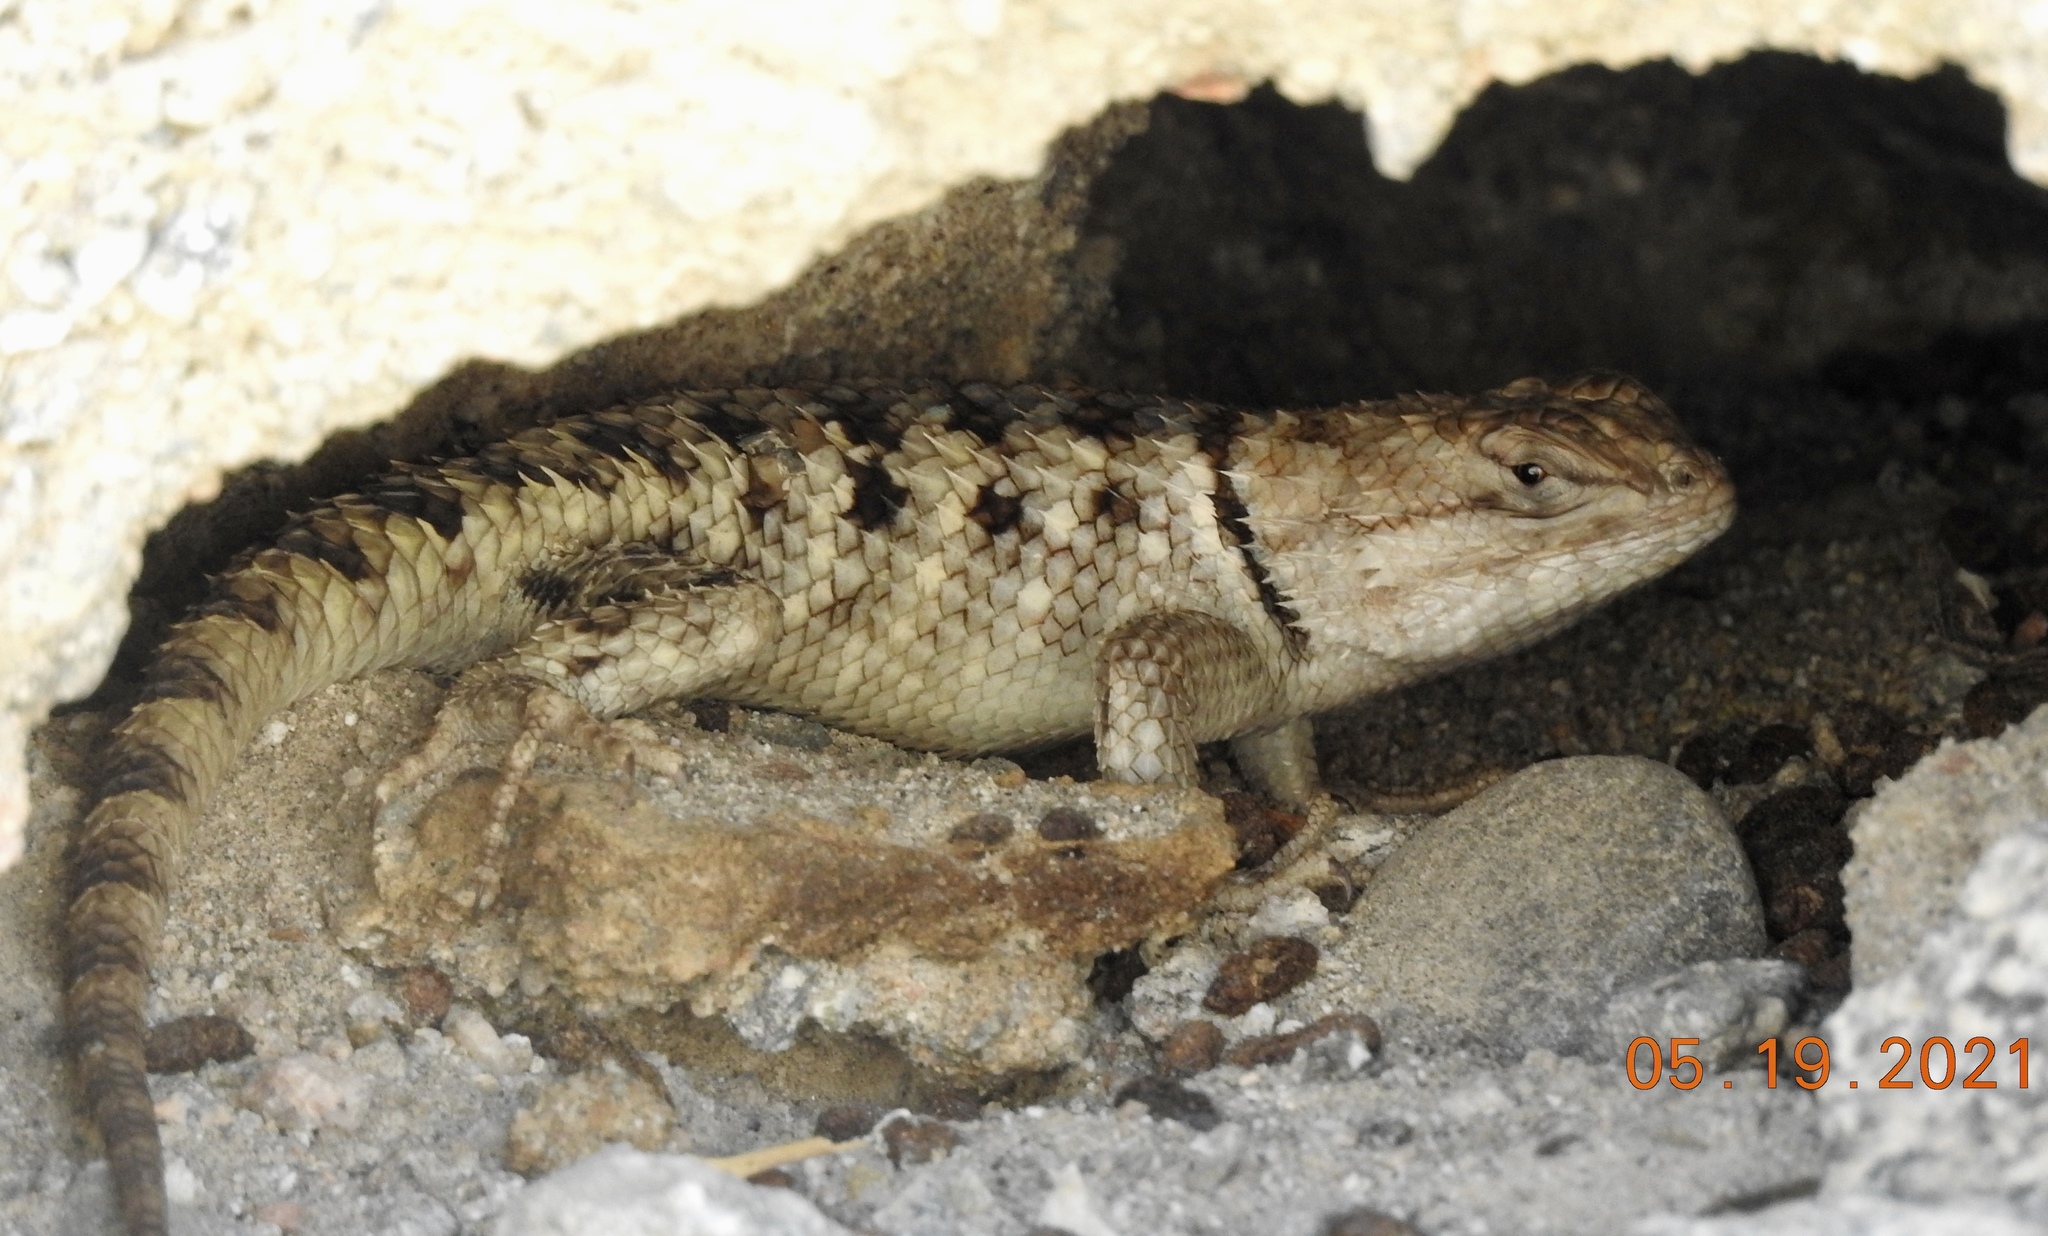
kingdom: Animalia
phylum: Chordata
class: Squamata
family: Phrynosomatidae
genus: Sceloporus
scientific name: Sceloporus magister
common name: Desert spiny lizard
